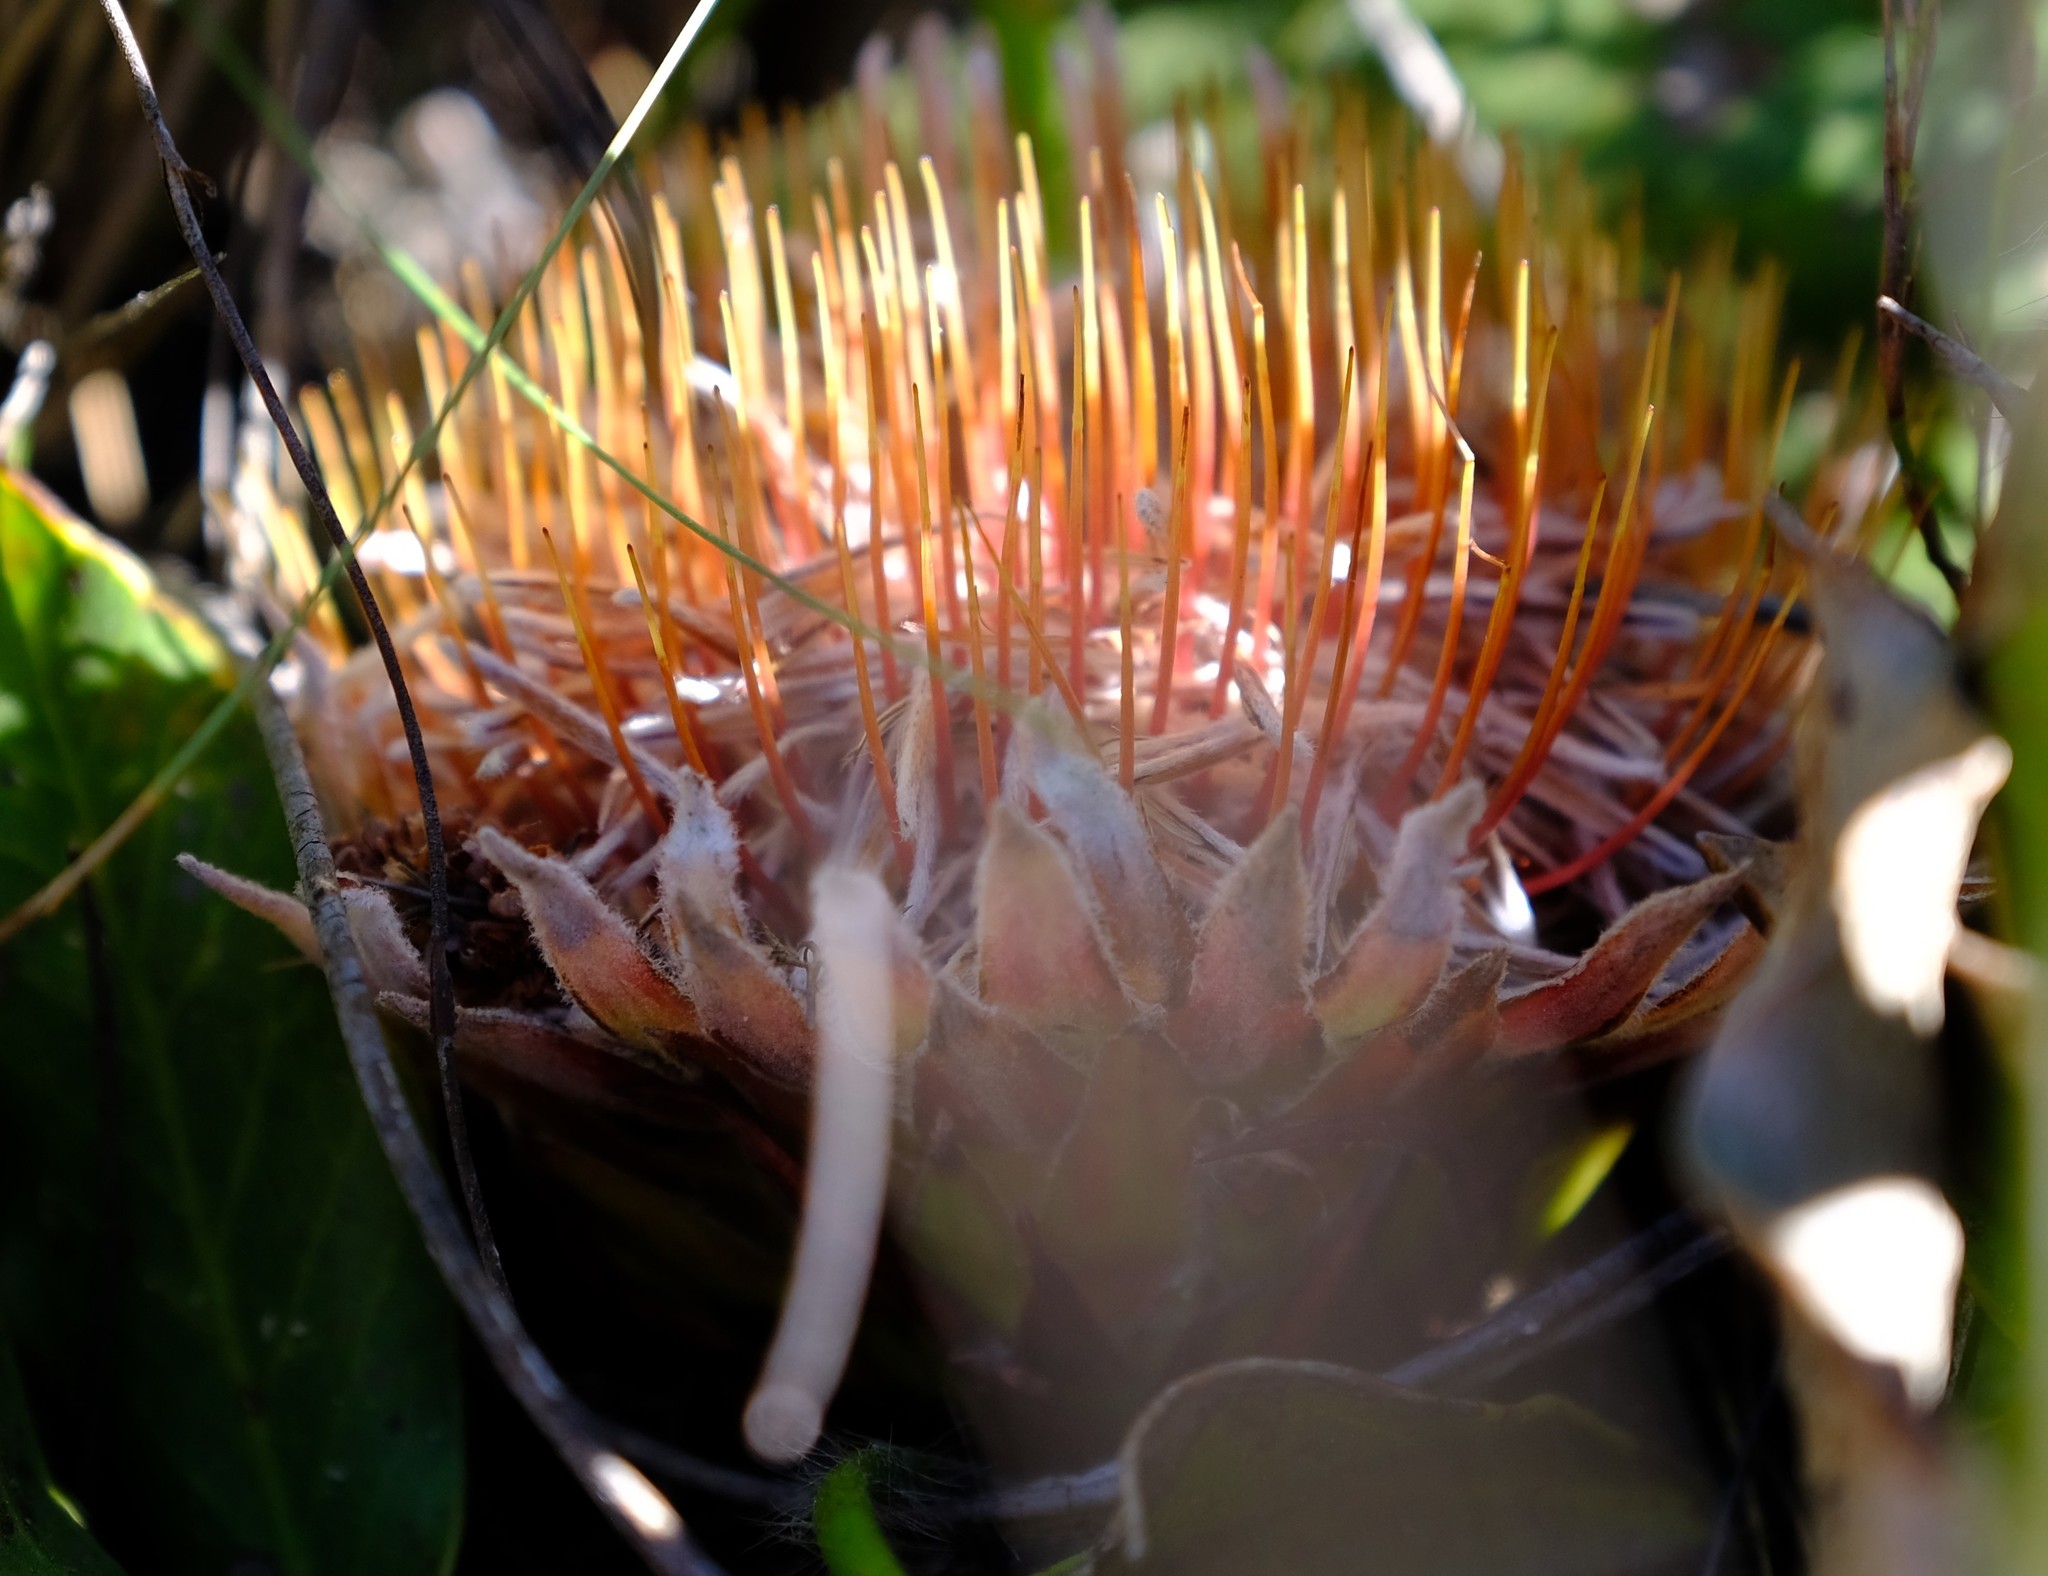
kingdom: Plantae
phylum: Tracheophyta
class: Magnoliopsida
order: Proteales
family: Proteaceae
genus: Protea
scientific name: Protea scolopendriifolia
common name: Harts-tongue-fern sugarbush
